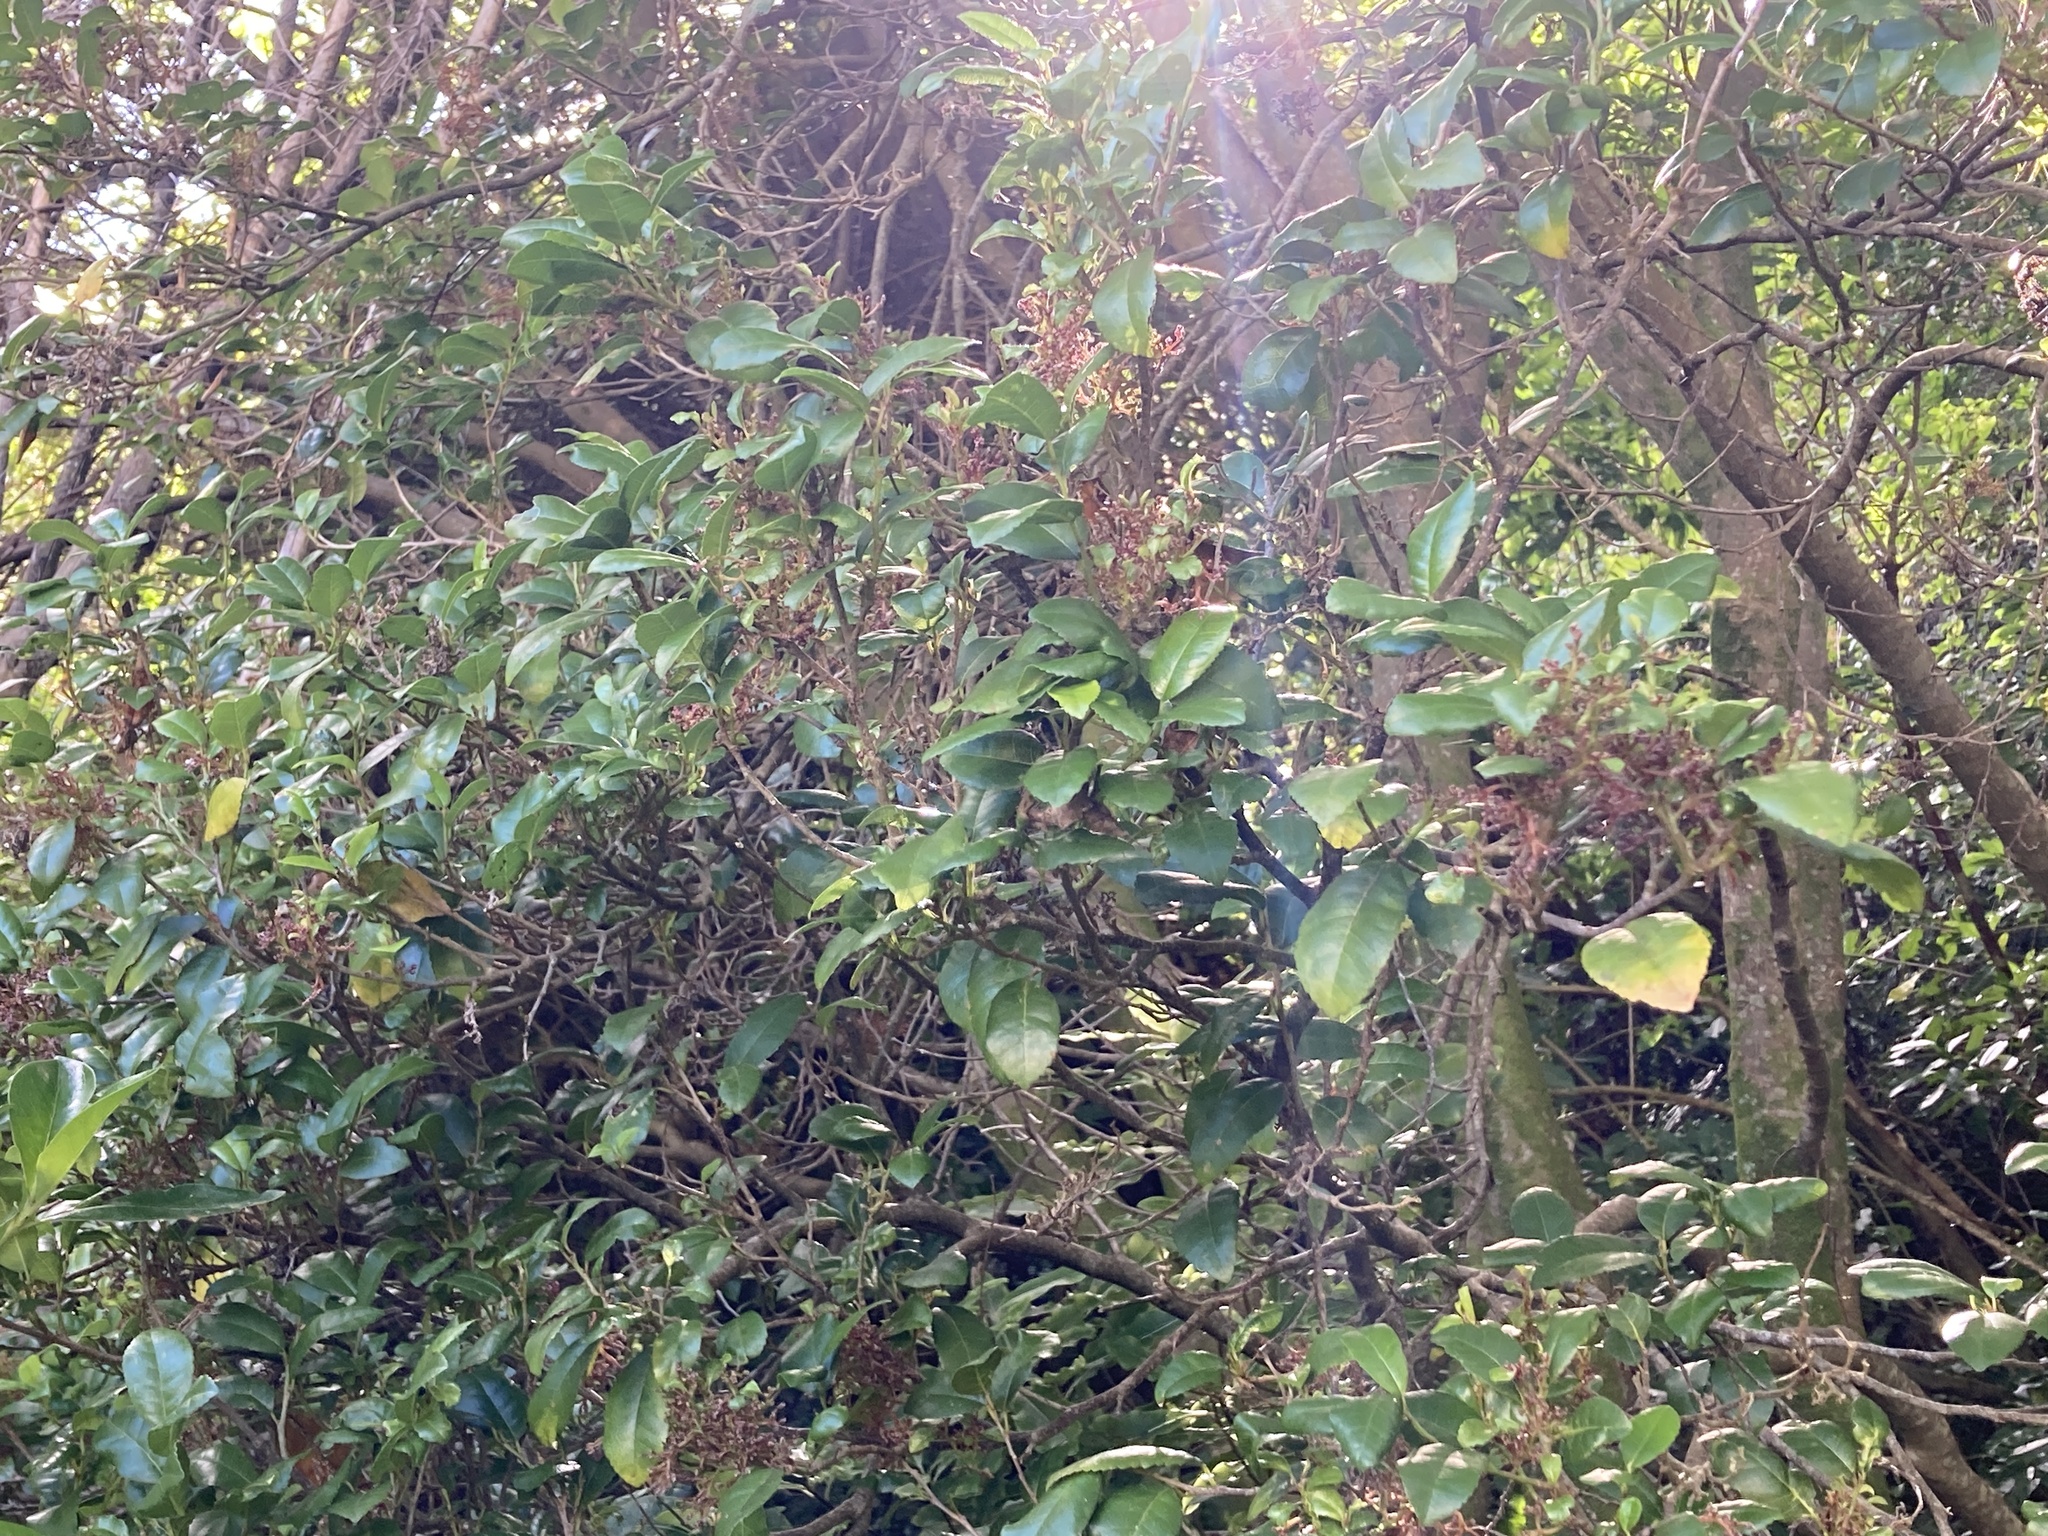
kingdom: Plantae
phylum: Tracheophyta
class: Magnoliopsida
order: Rosales
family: Moraceae
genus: Paratrophis
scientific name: Paratrophis banksii
